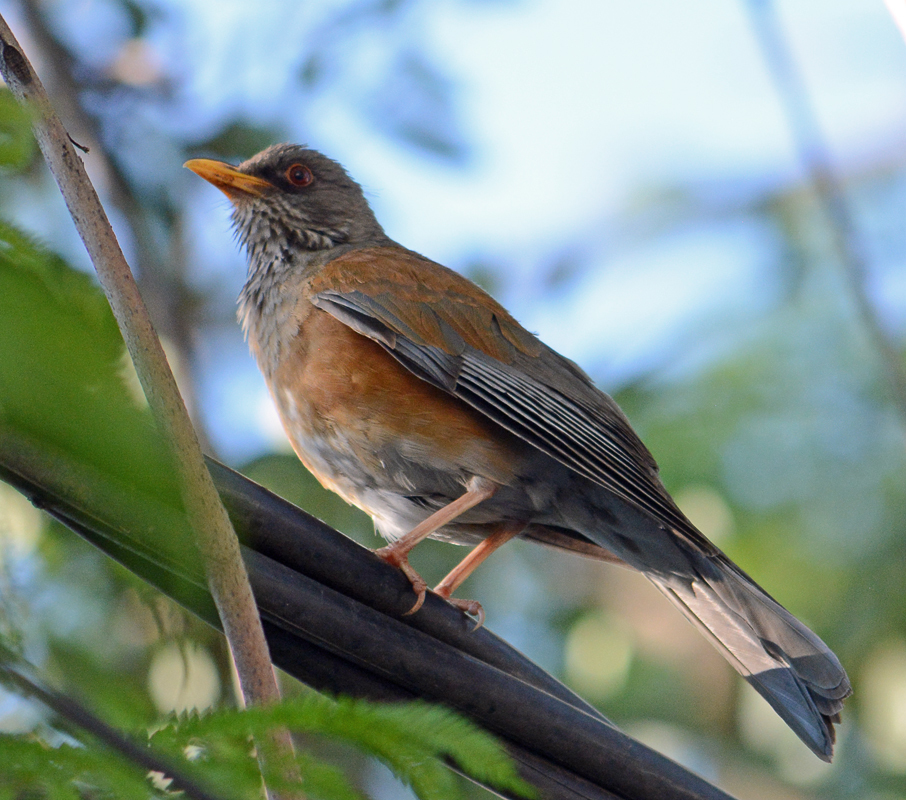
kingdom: Animalia
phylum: Chordata
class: Aves
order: Passeriformes
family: Turdidae
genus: Turdus
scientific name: Turdus rufopalliatus
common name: Rufous-backed robin
